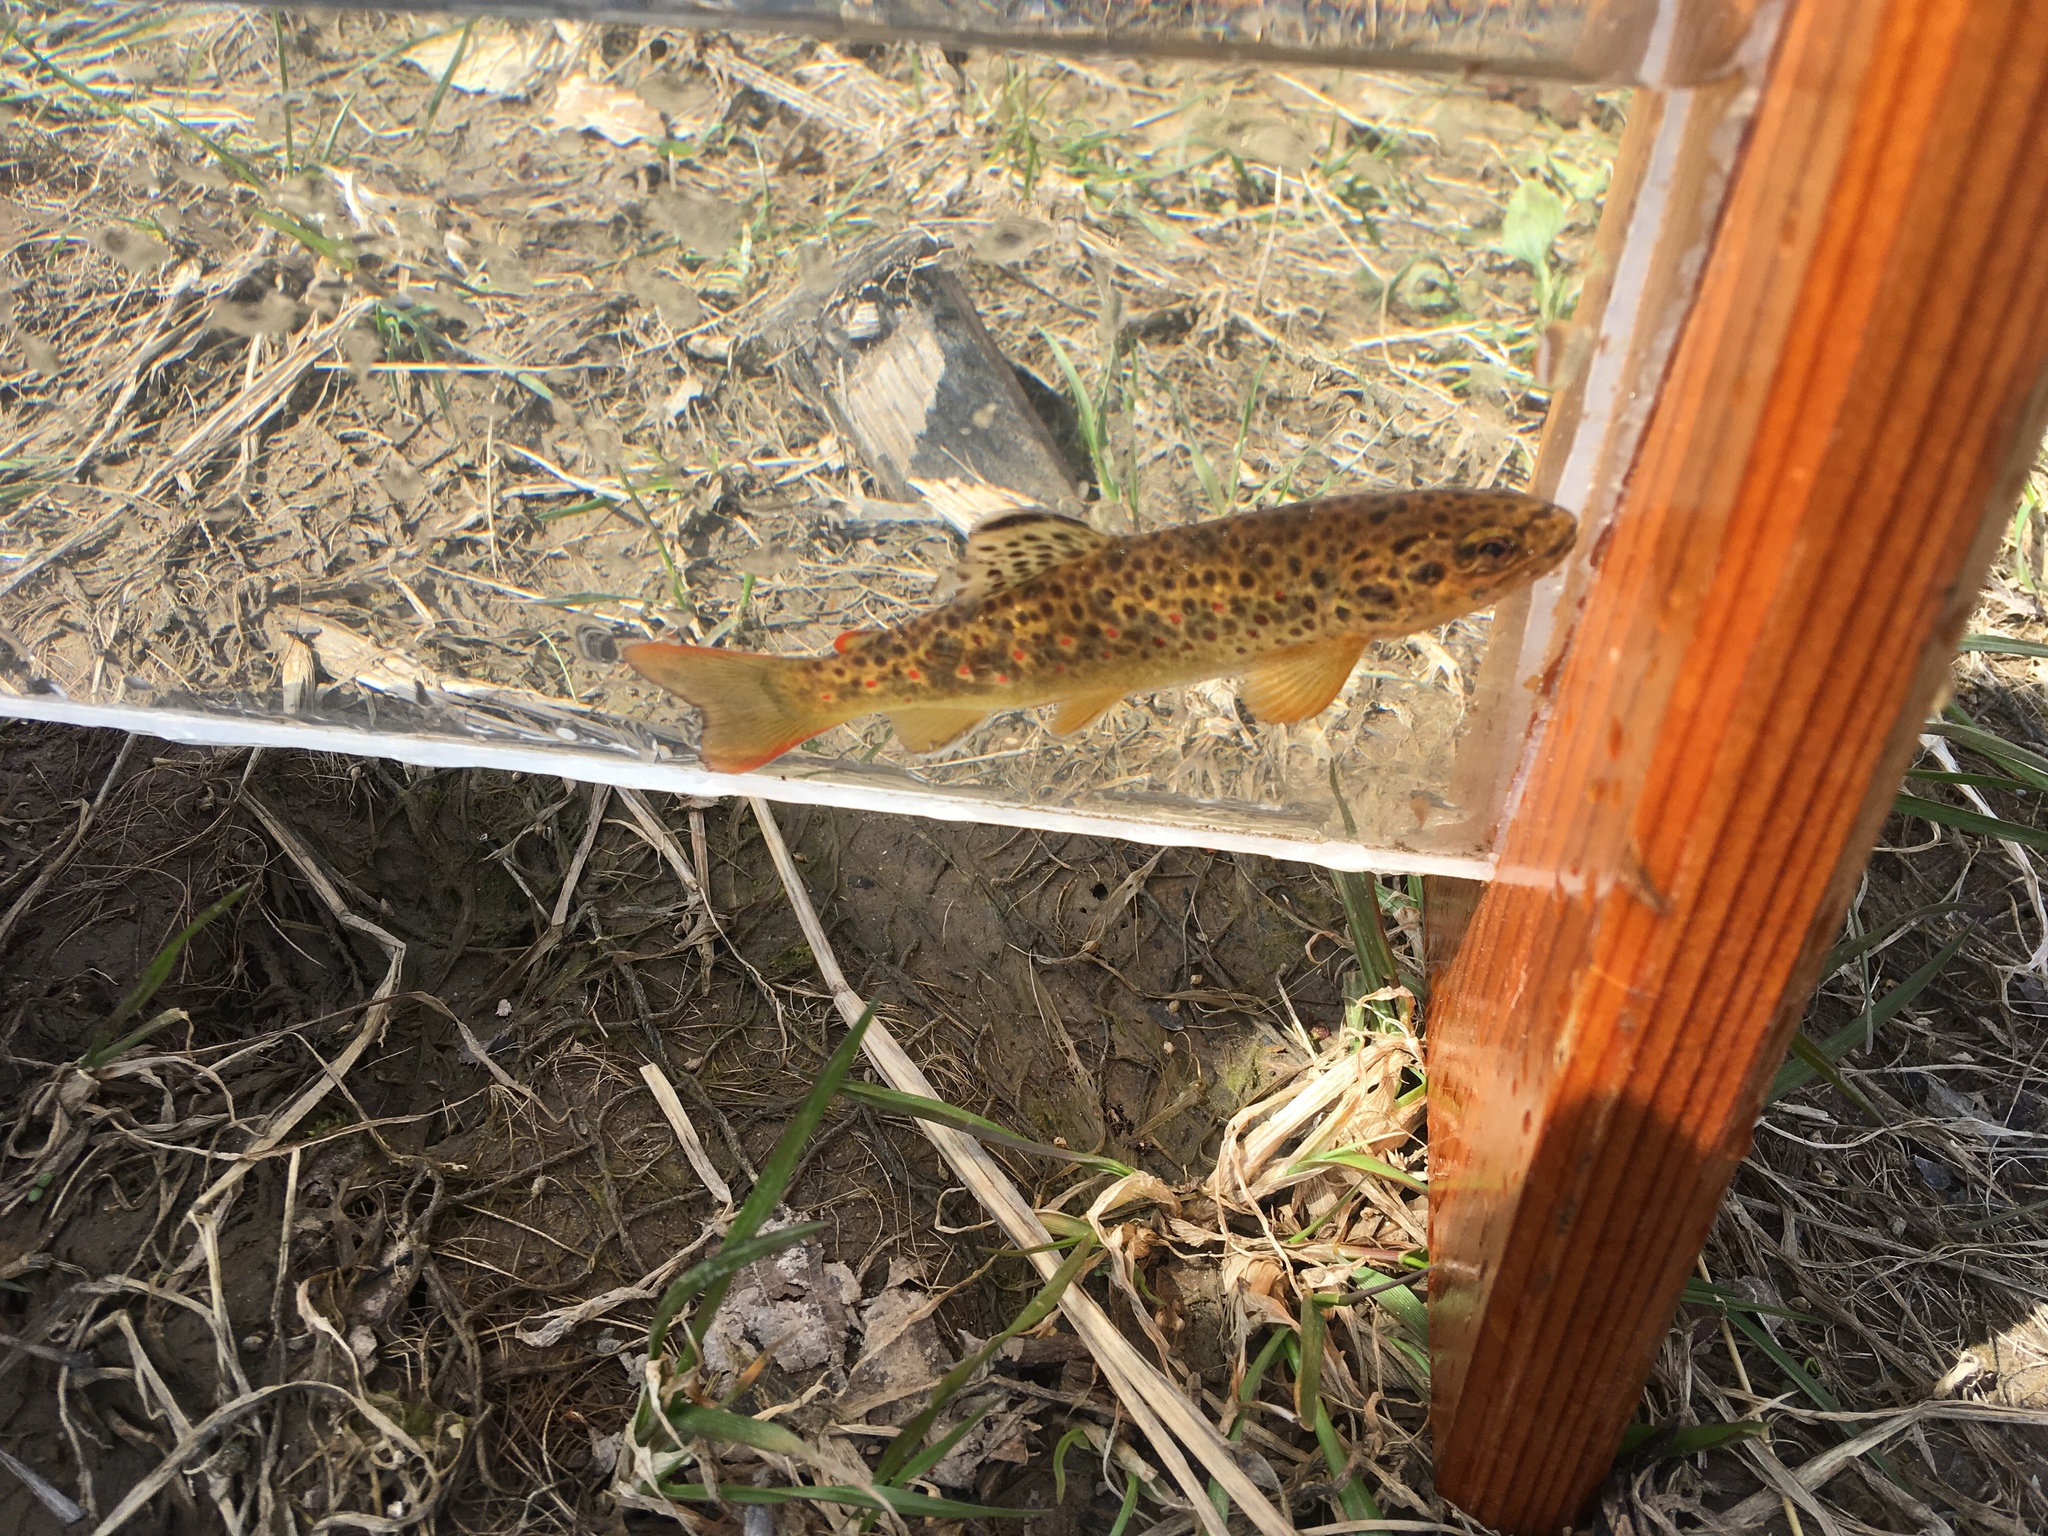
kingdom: Animalia
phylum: Chordata
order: Salmoniformes
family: Salmonidae
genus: Salmo
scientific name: Salmo trutta
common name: Brown trout
